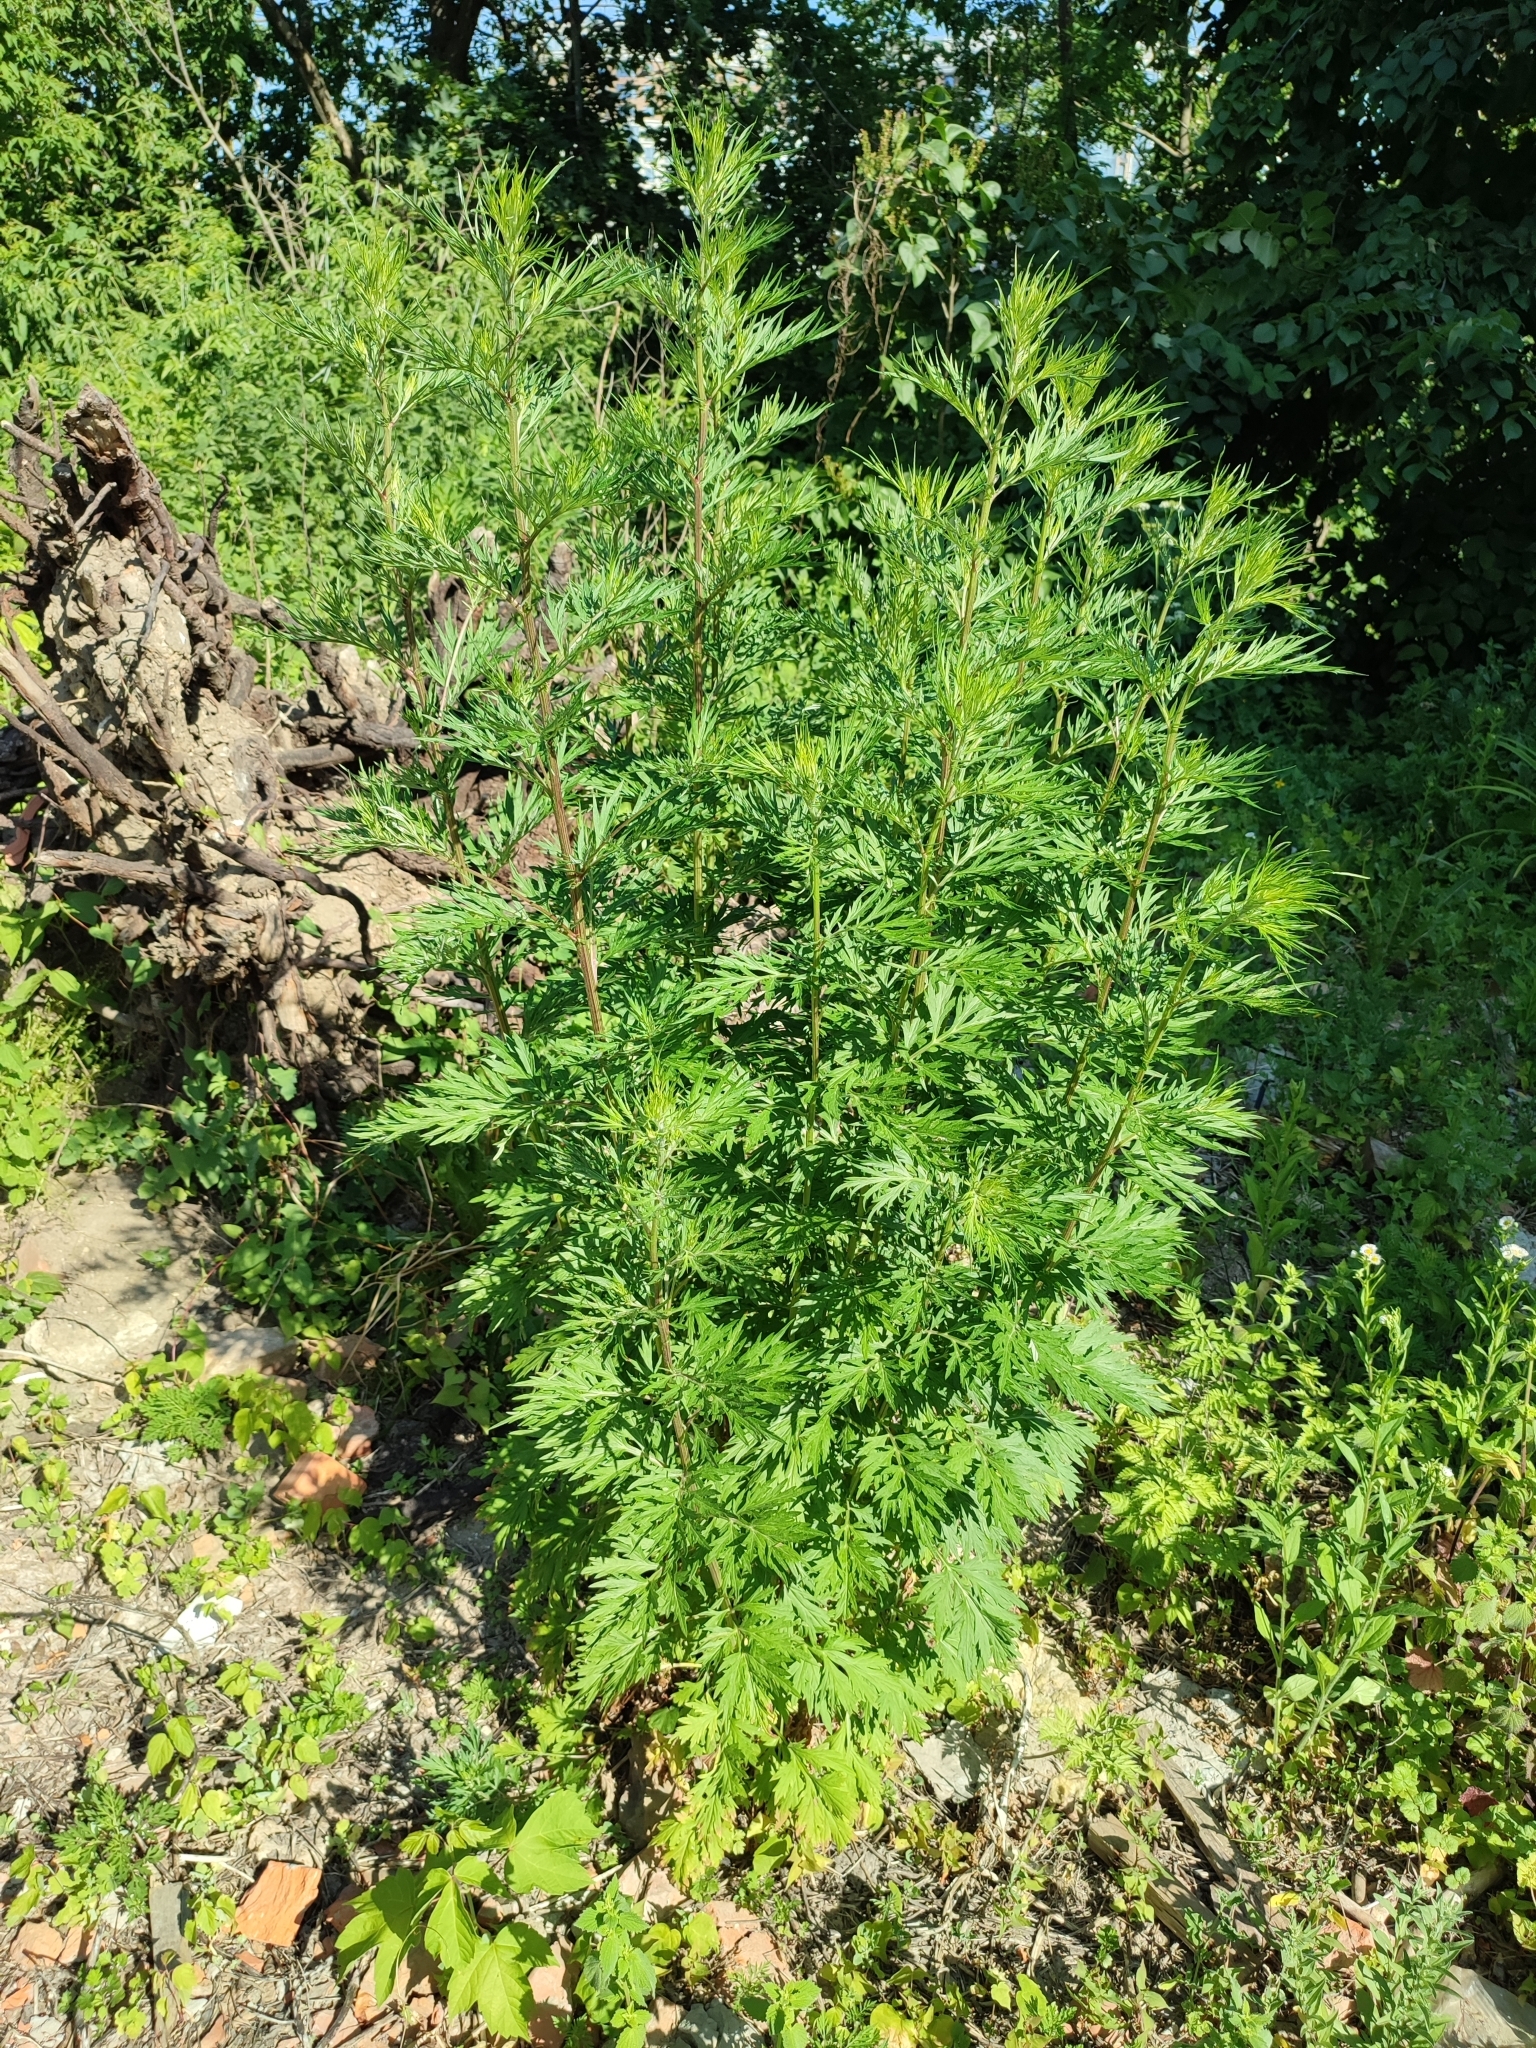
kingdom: Plantae
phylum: Tracheophyta
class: Magnoliopsida
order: Asterales
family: Asteraceae
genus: Artemisia
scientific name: Artemisia vulgaris
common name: Mugwort
